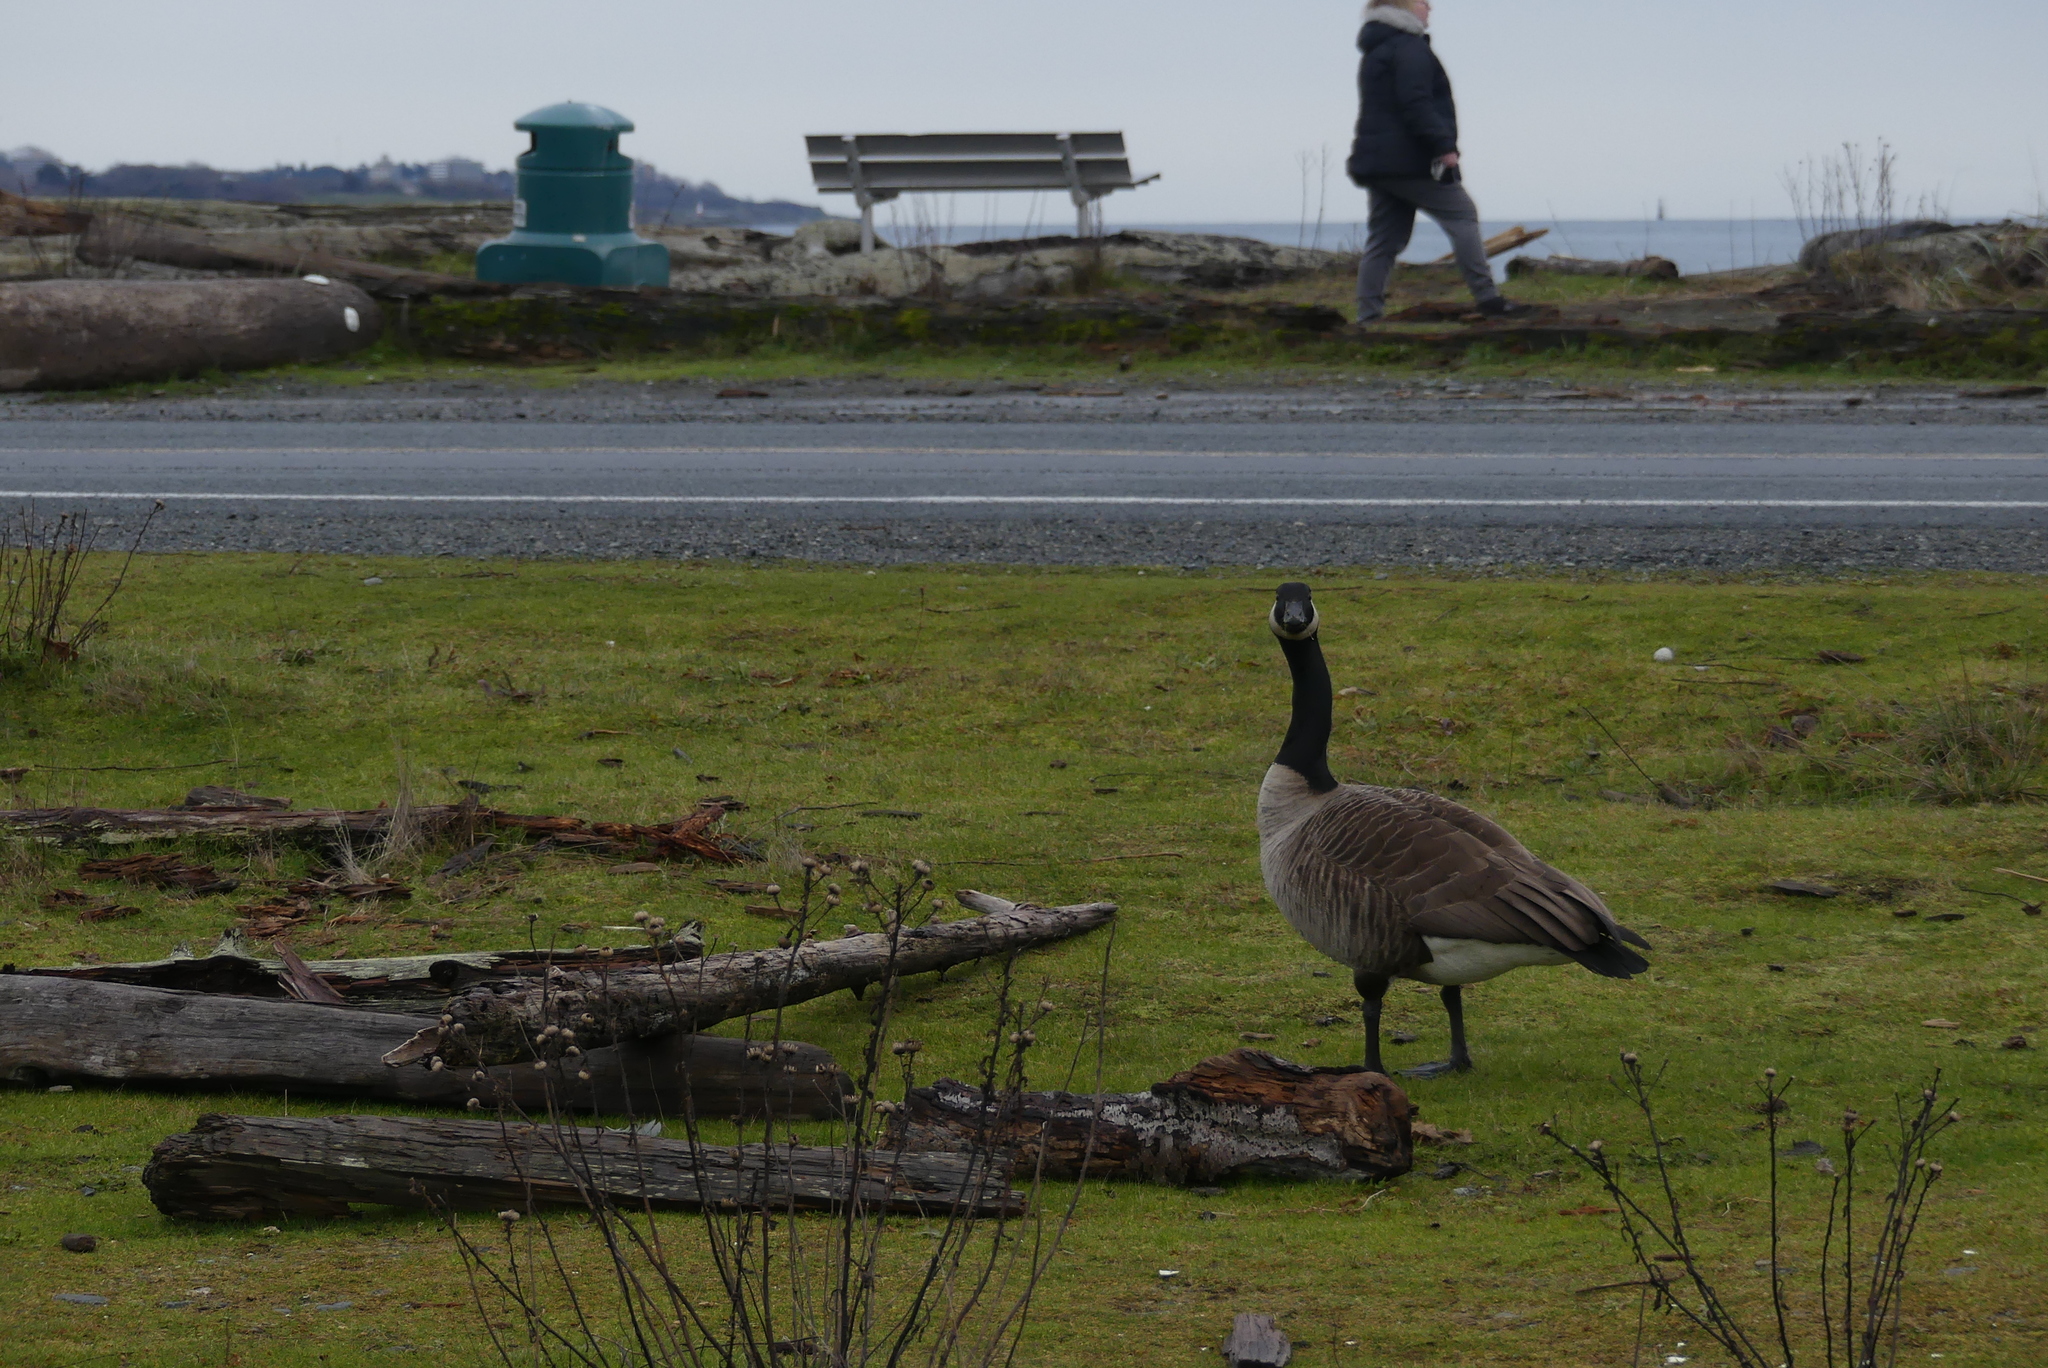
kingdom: Animalia
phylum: Chordata
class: Aves
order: Anseriformes
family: Anatidae
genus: Branta
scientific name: Branta canadensis
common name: Canada goose
